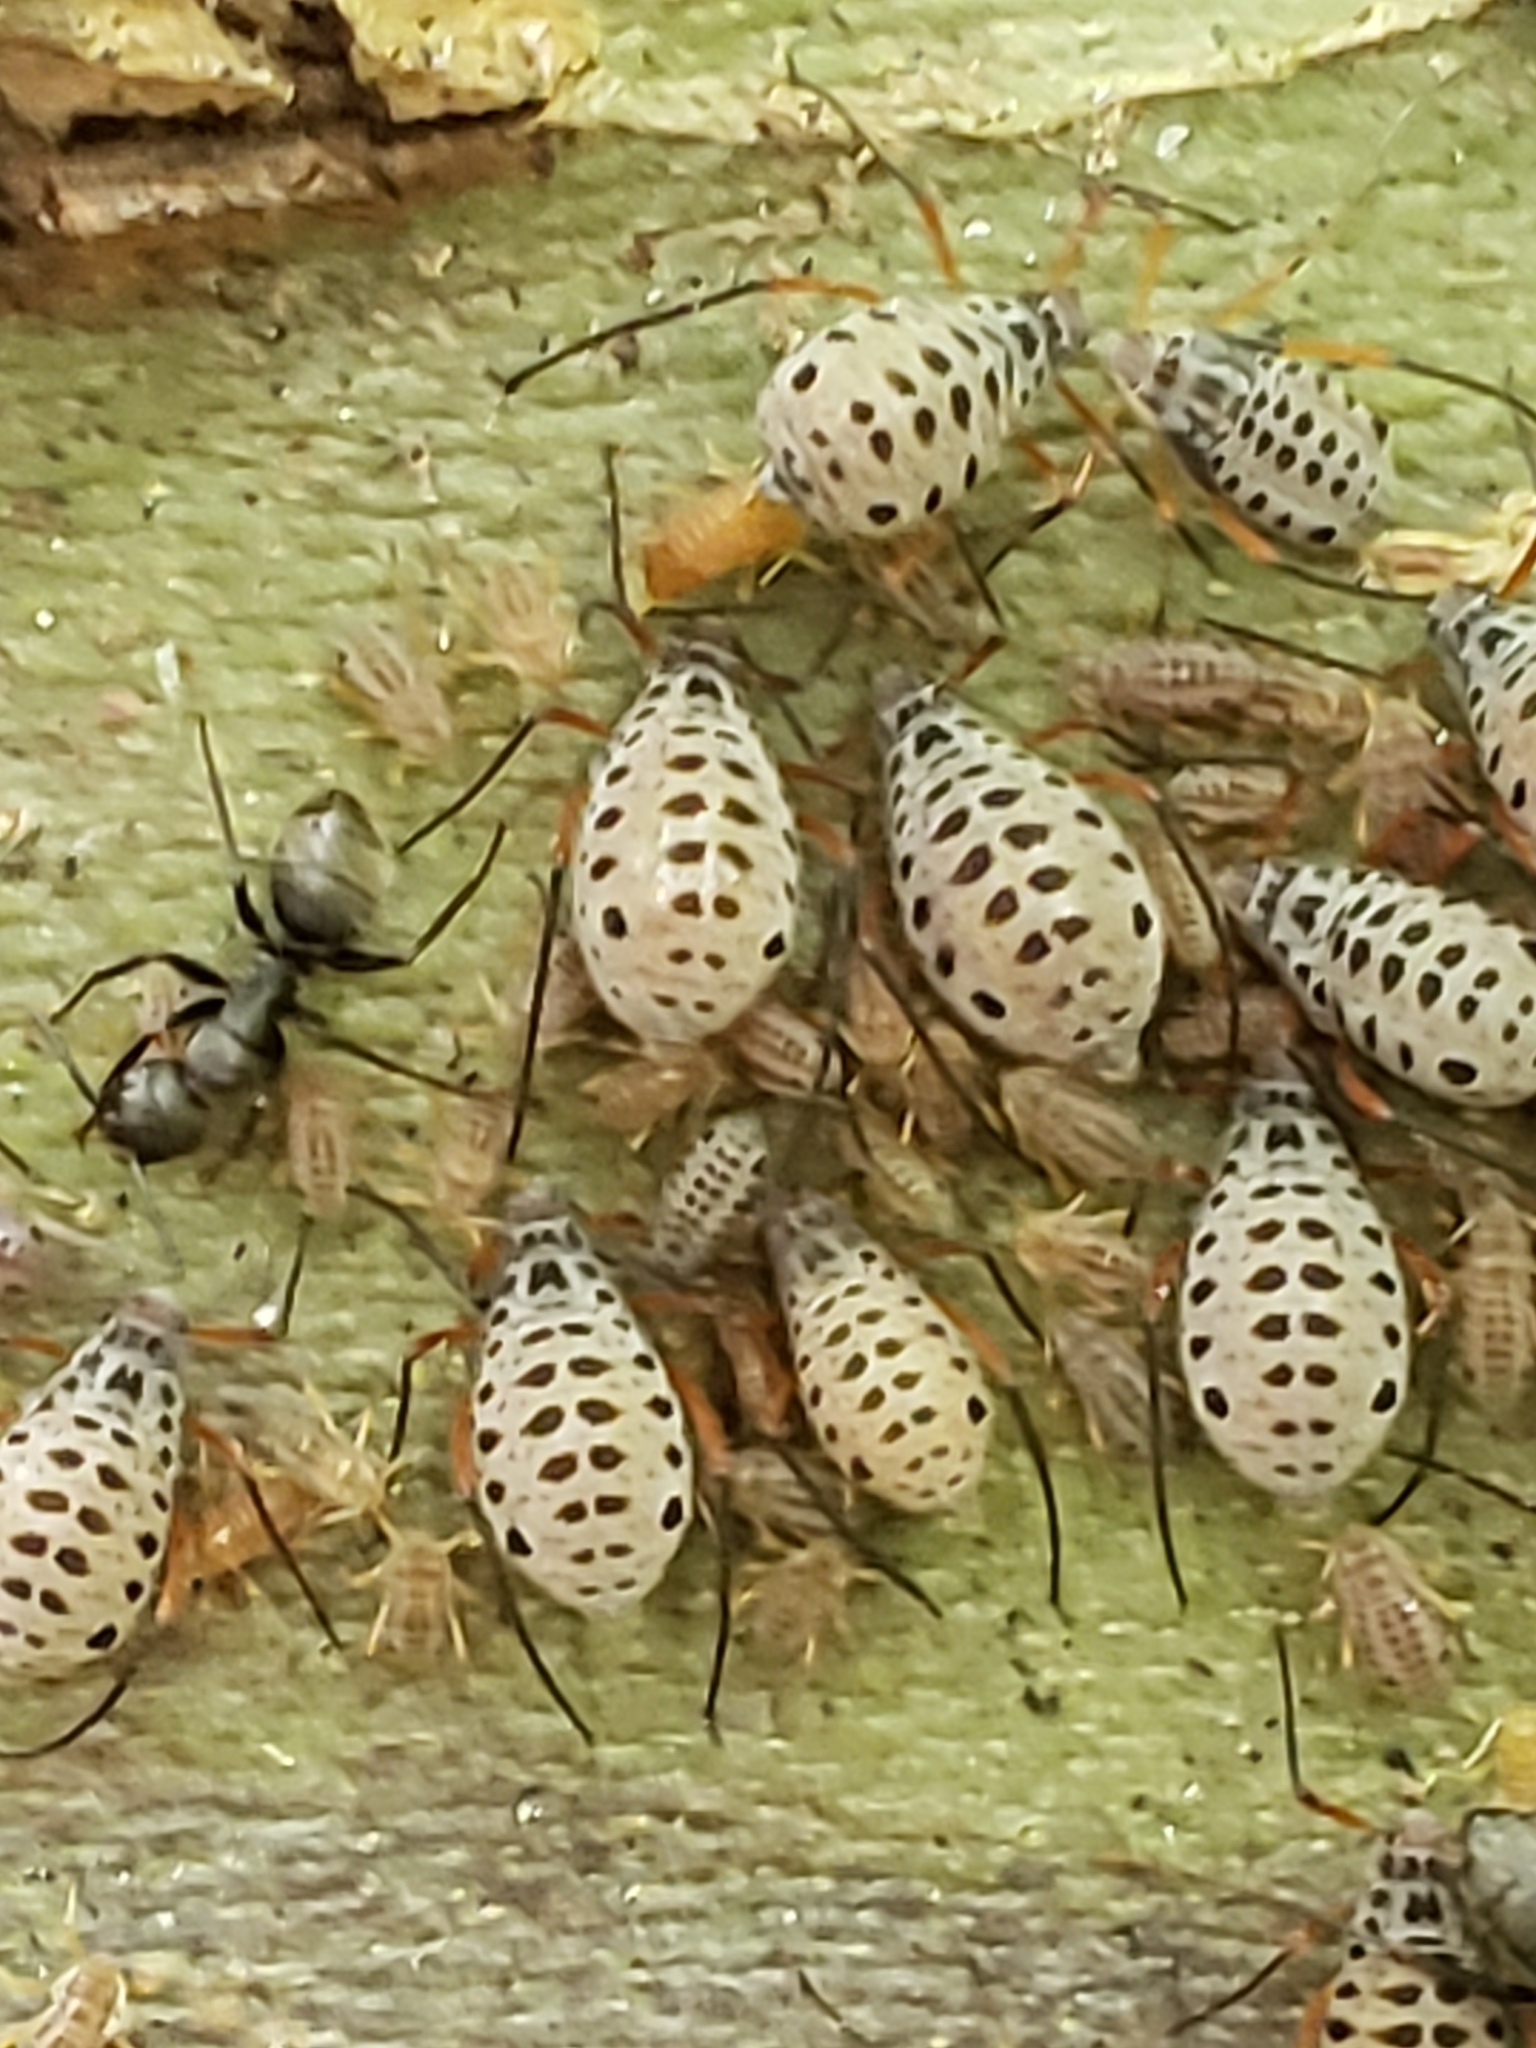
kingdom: Animalia
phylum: Arthropoda
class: Insecta
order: Hemiptera
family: Aphididae
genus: Longistigma
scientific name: Longistigma caryae
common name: Giant bark aphid
